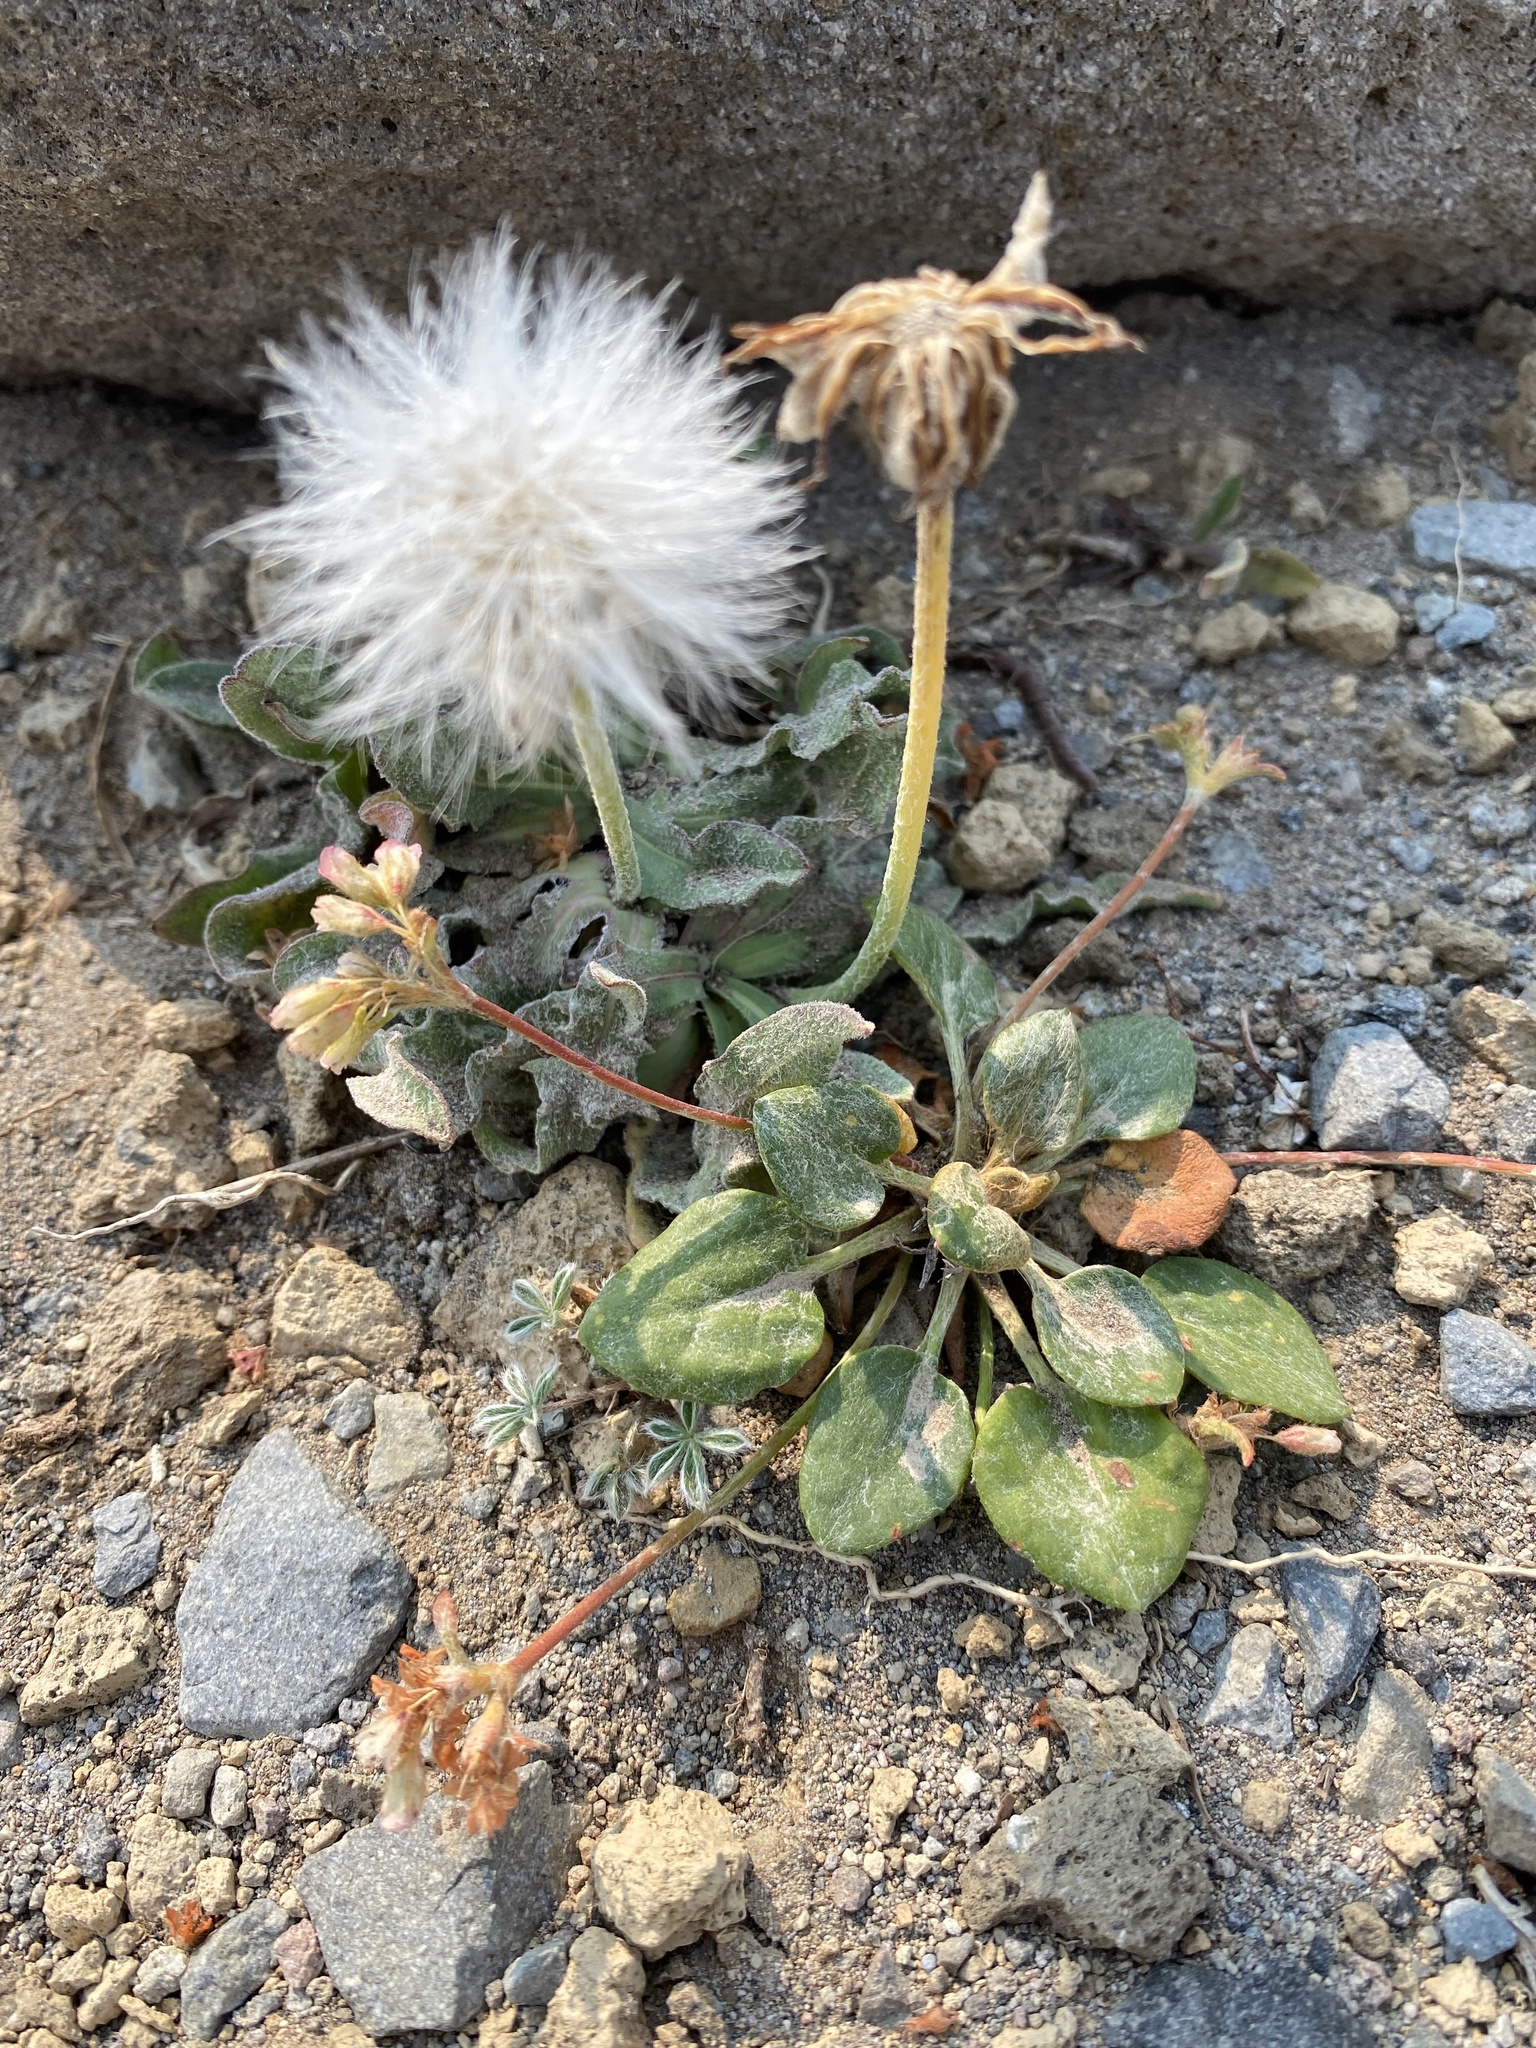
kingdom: Plantae
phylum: Tracheophyta
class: Magnoliopsida
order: Caryophyllales
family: Polygonaceae
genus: Eriogonum
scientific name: Eriogonum pyrolifolium
